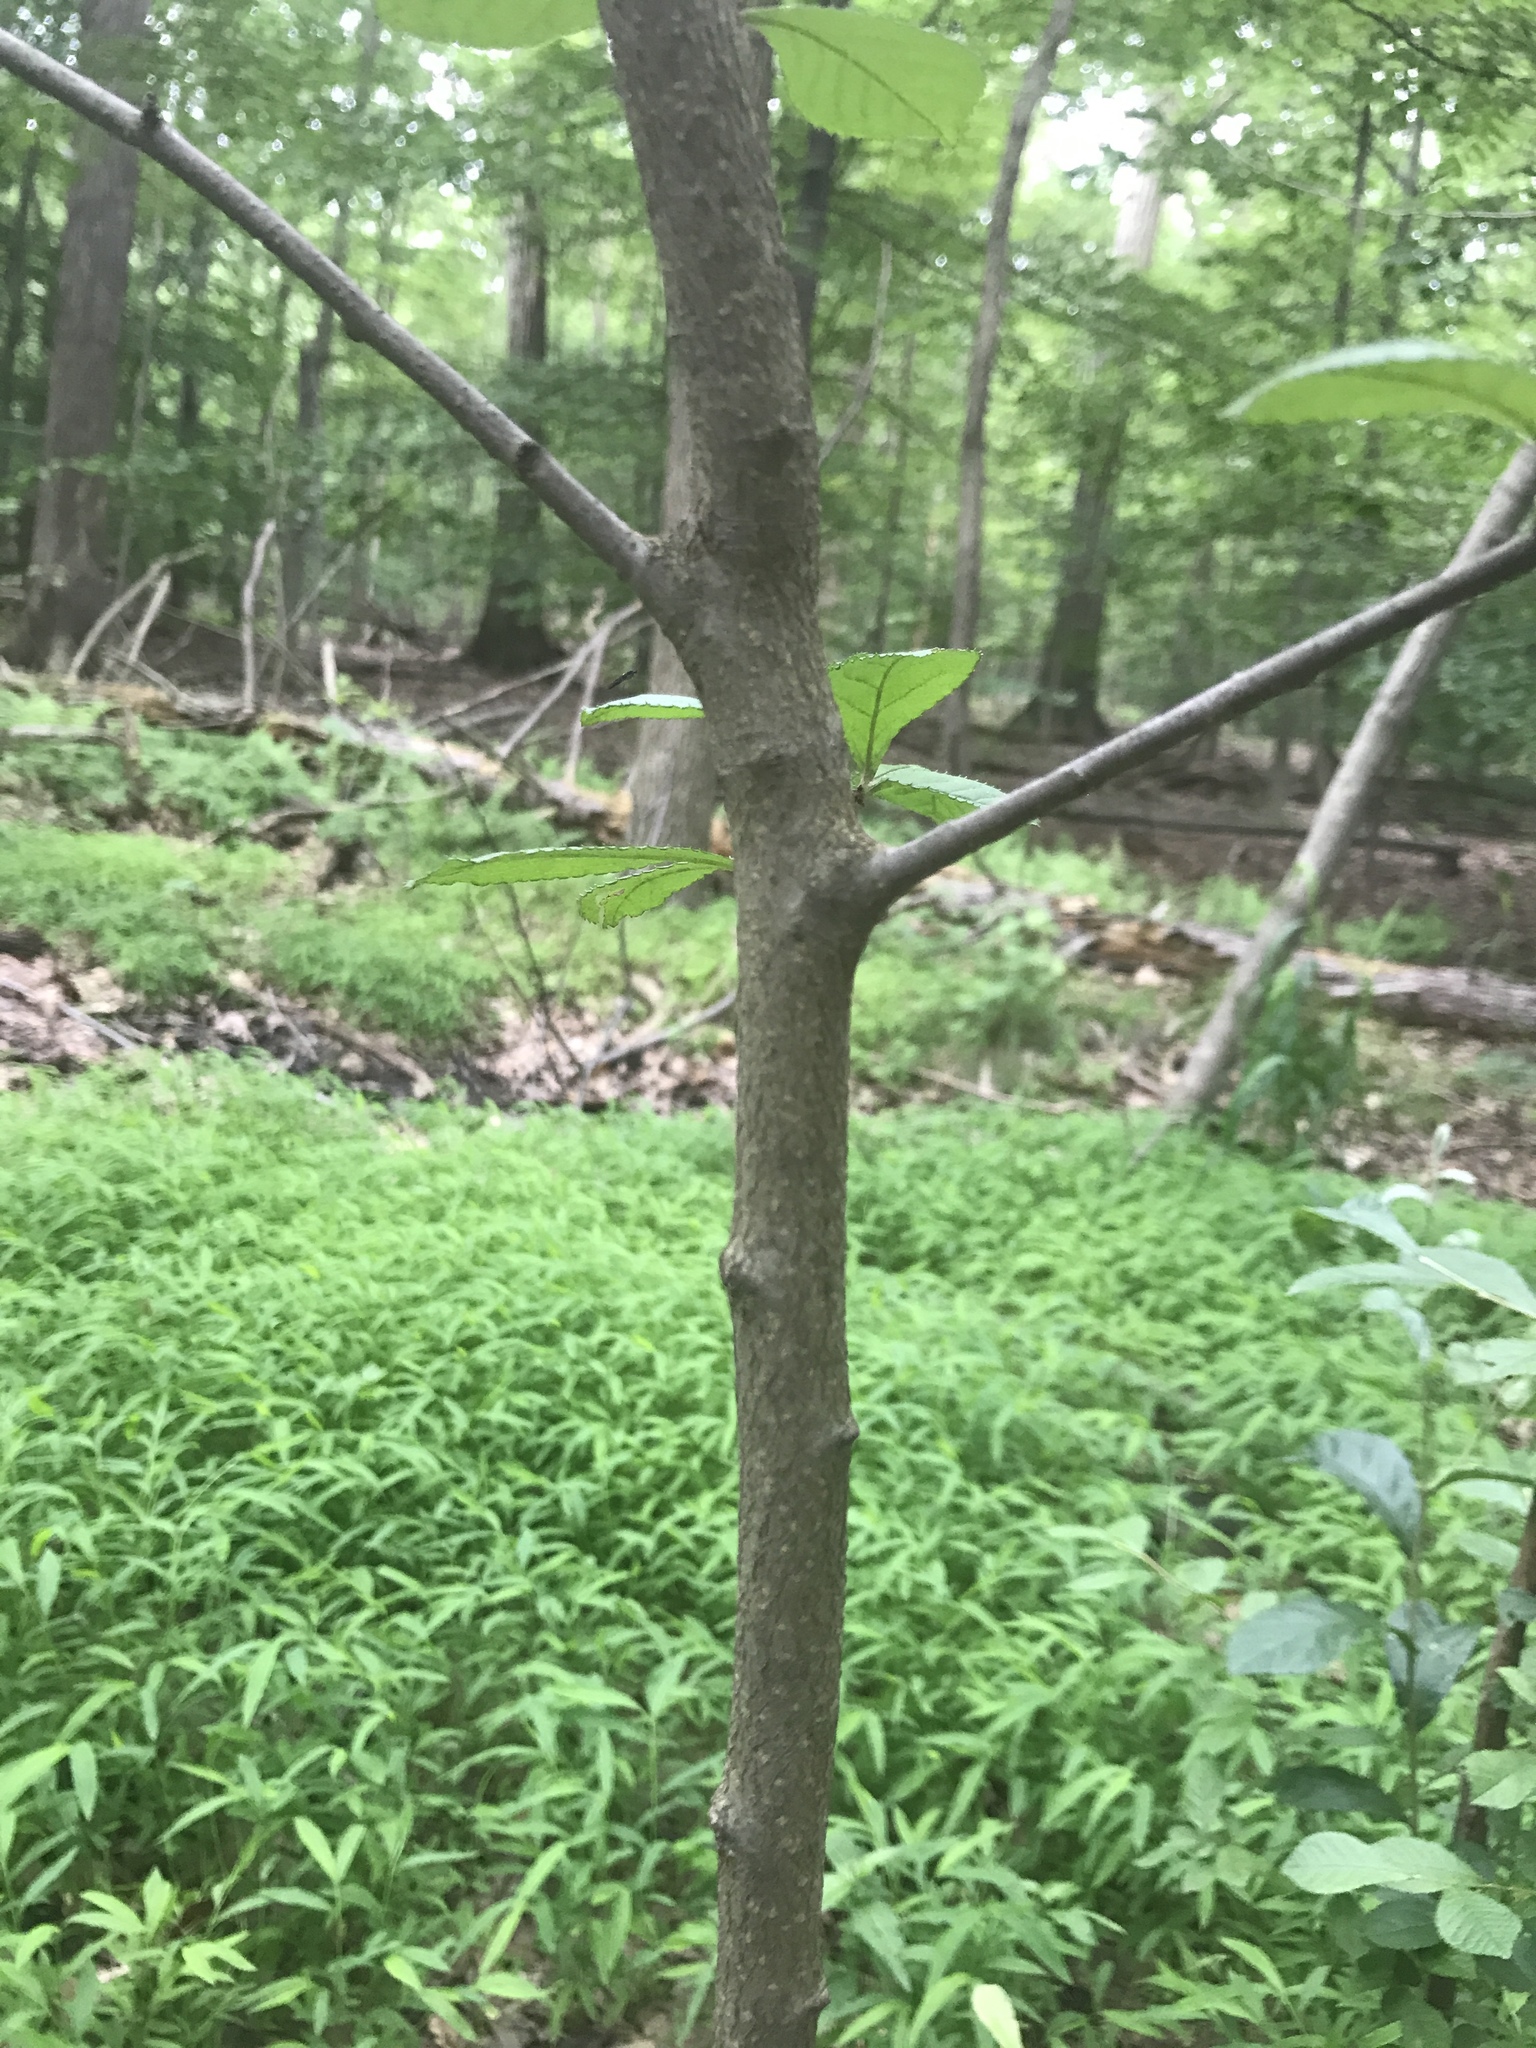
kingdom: Plantae
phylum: Tracheophyta
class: Magnoliopsida
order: Ericales
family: Clethraceae
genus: Clethra
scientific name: Clethra alnifolia
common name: Sweet pepperbush
